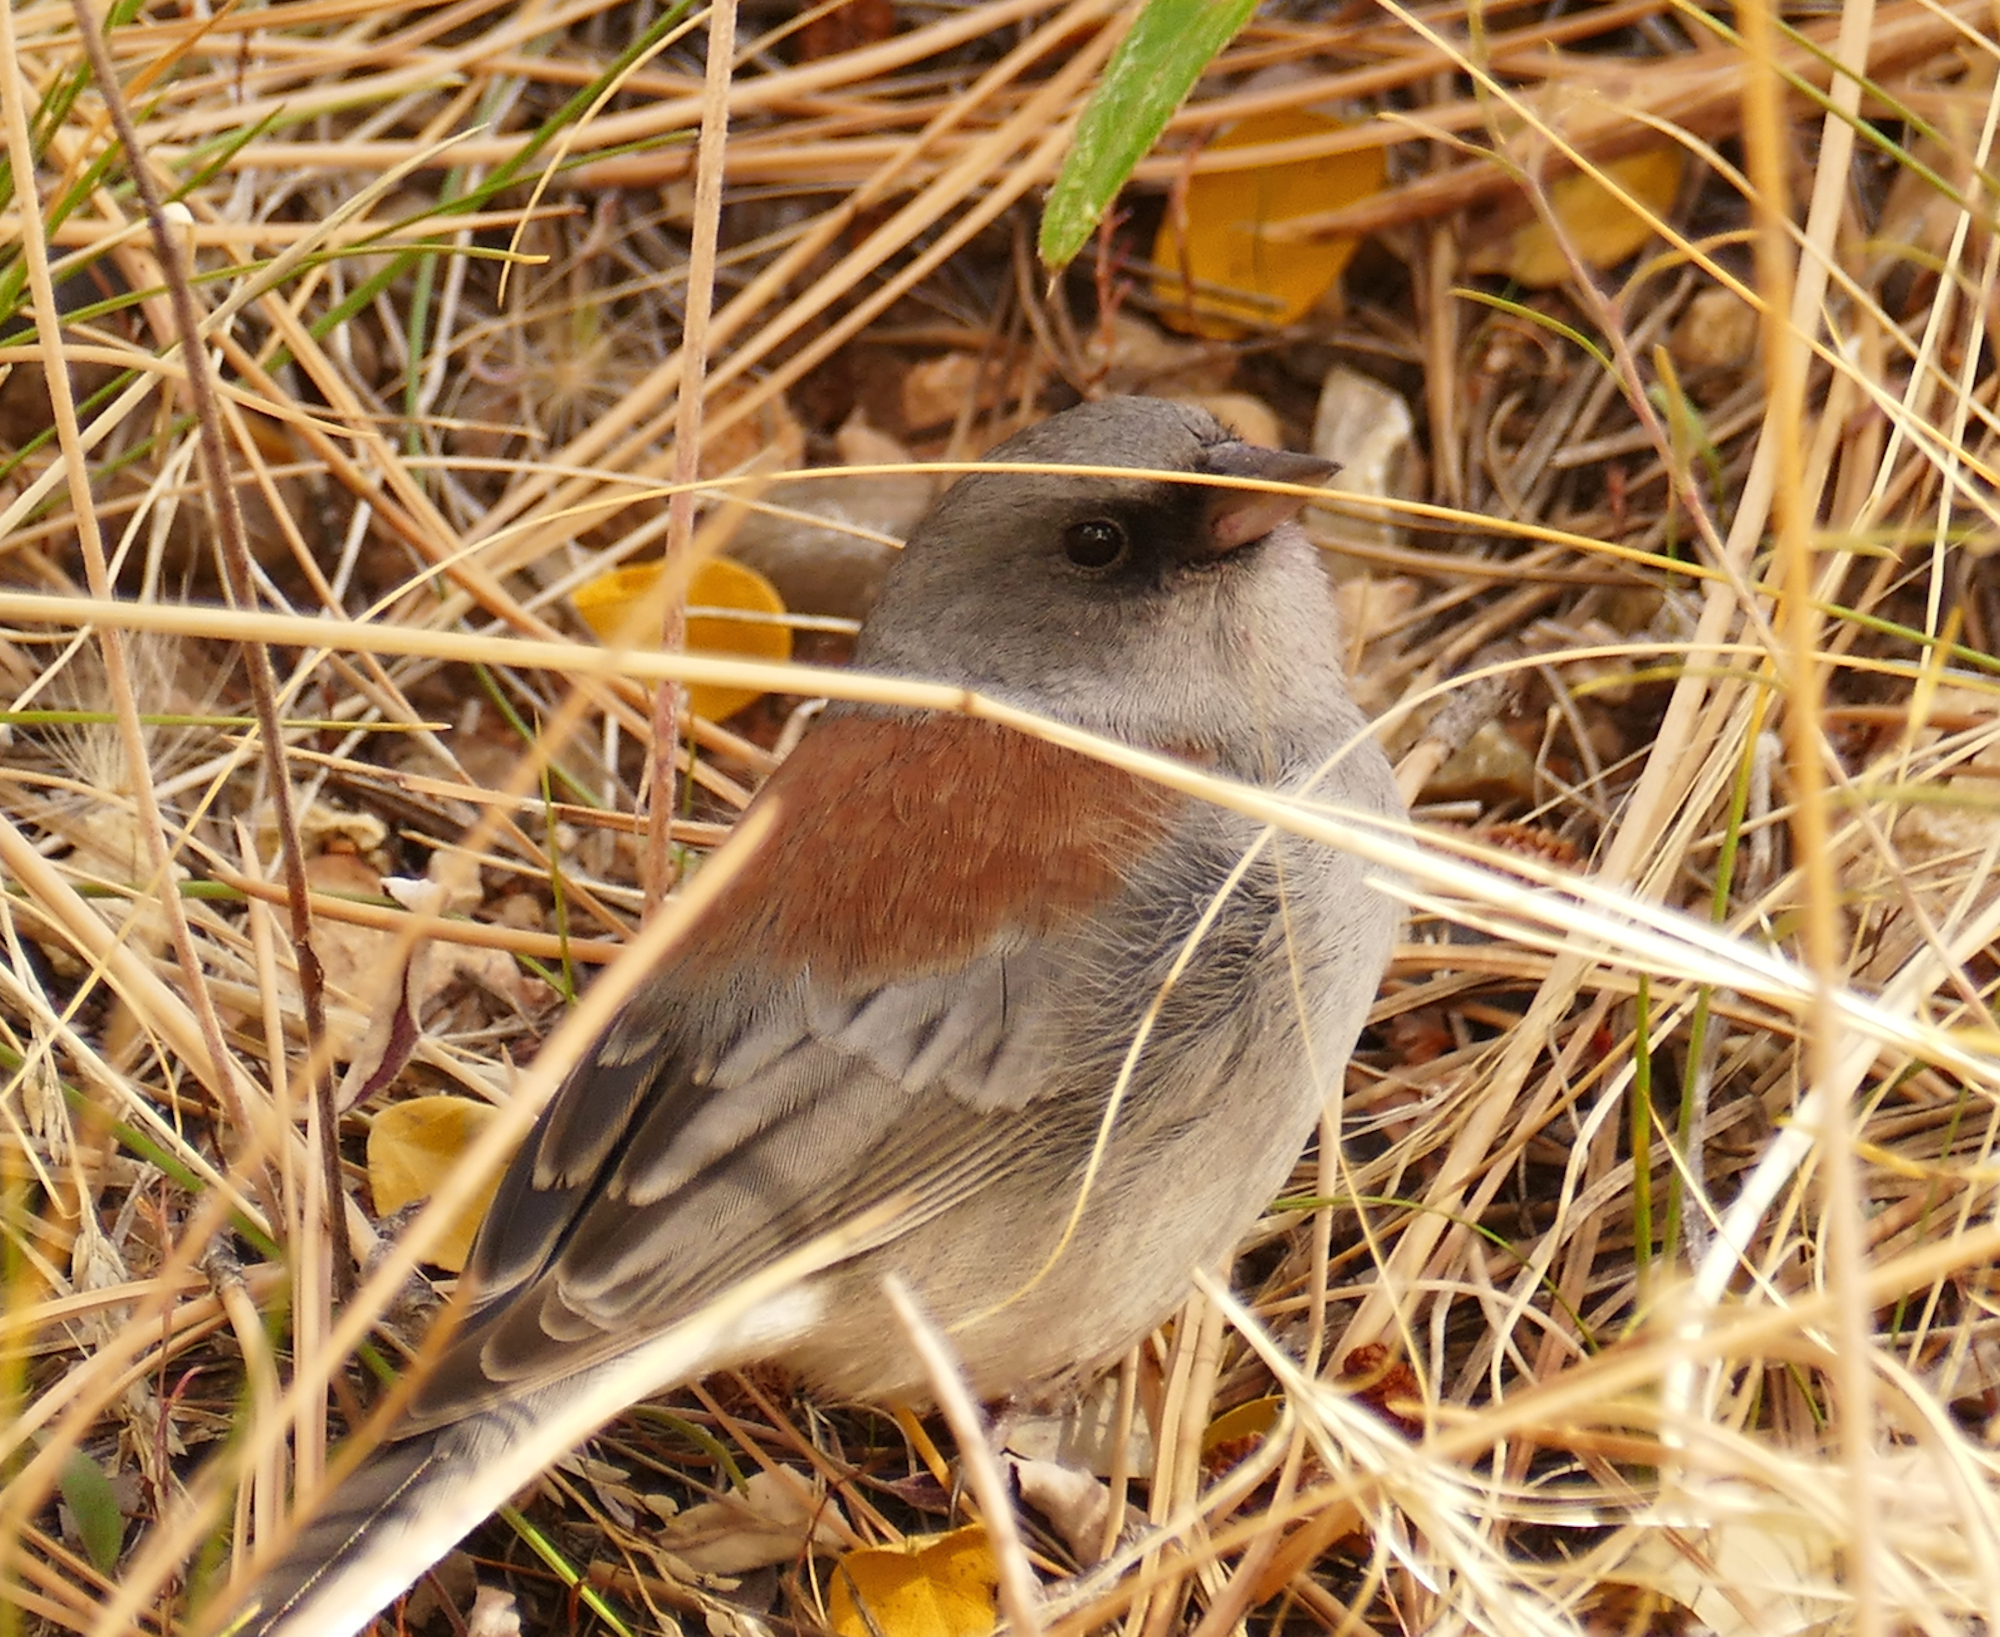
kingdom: Animalia
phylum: Chordata
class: Aves
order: Passeriformes
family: Passerellidae
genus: Junco
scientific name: Junco hyemalis
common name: Dark-eyed junco
